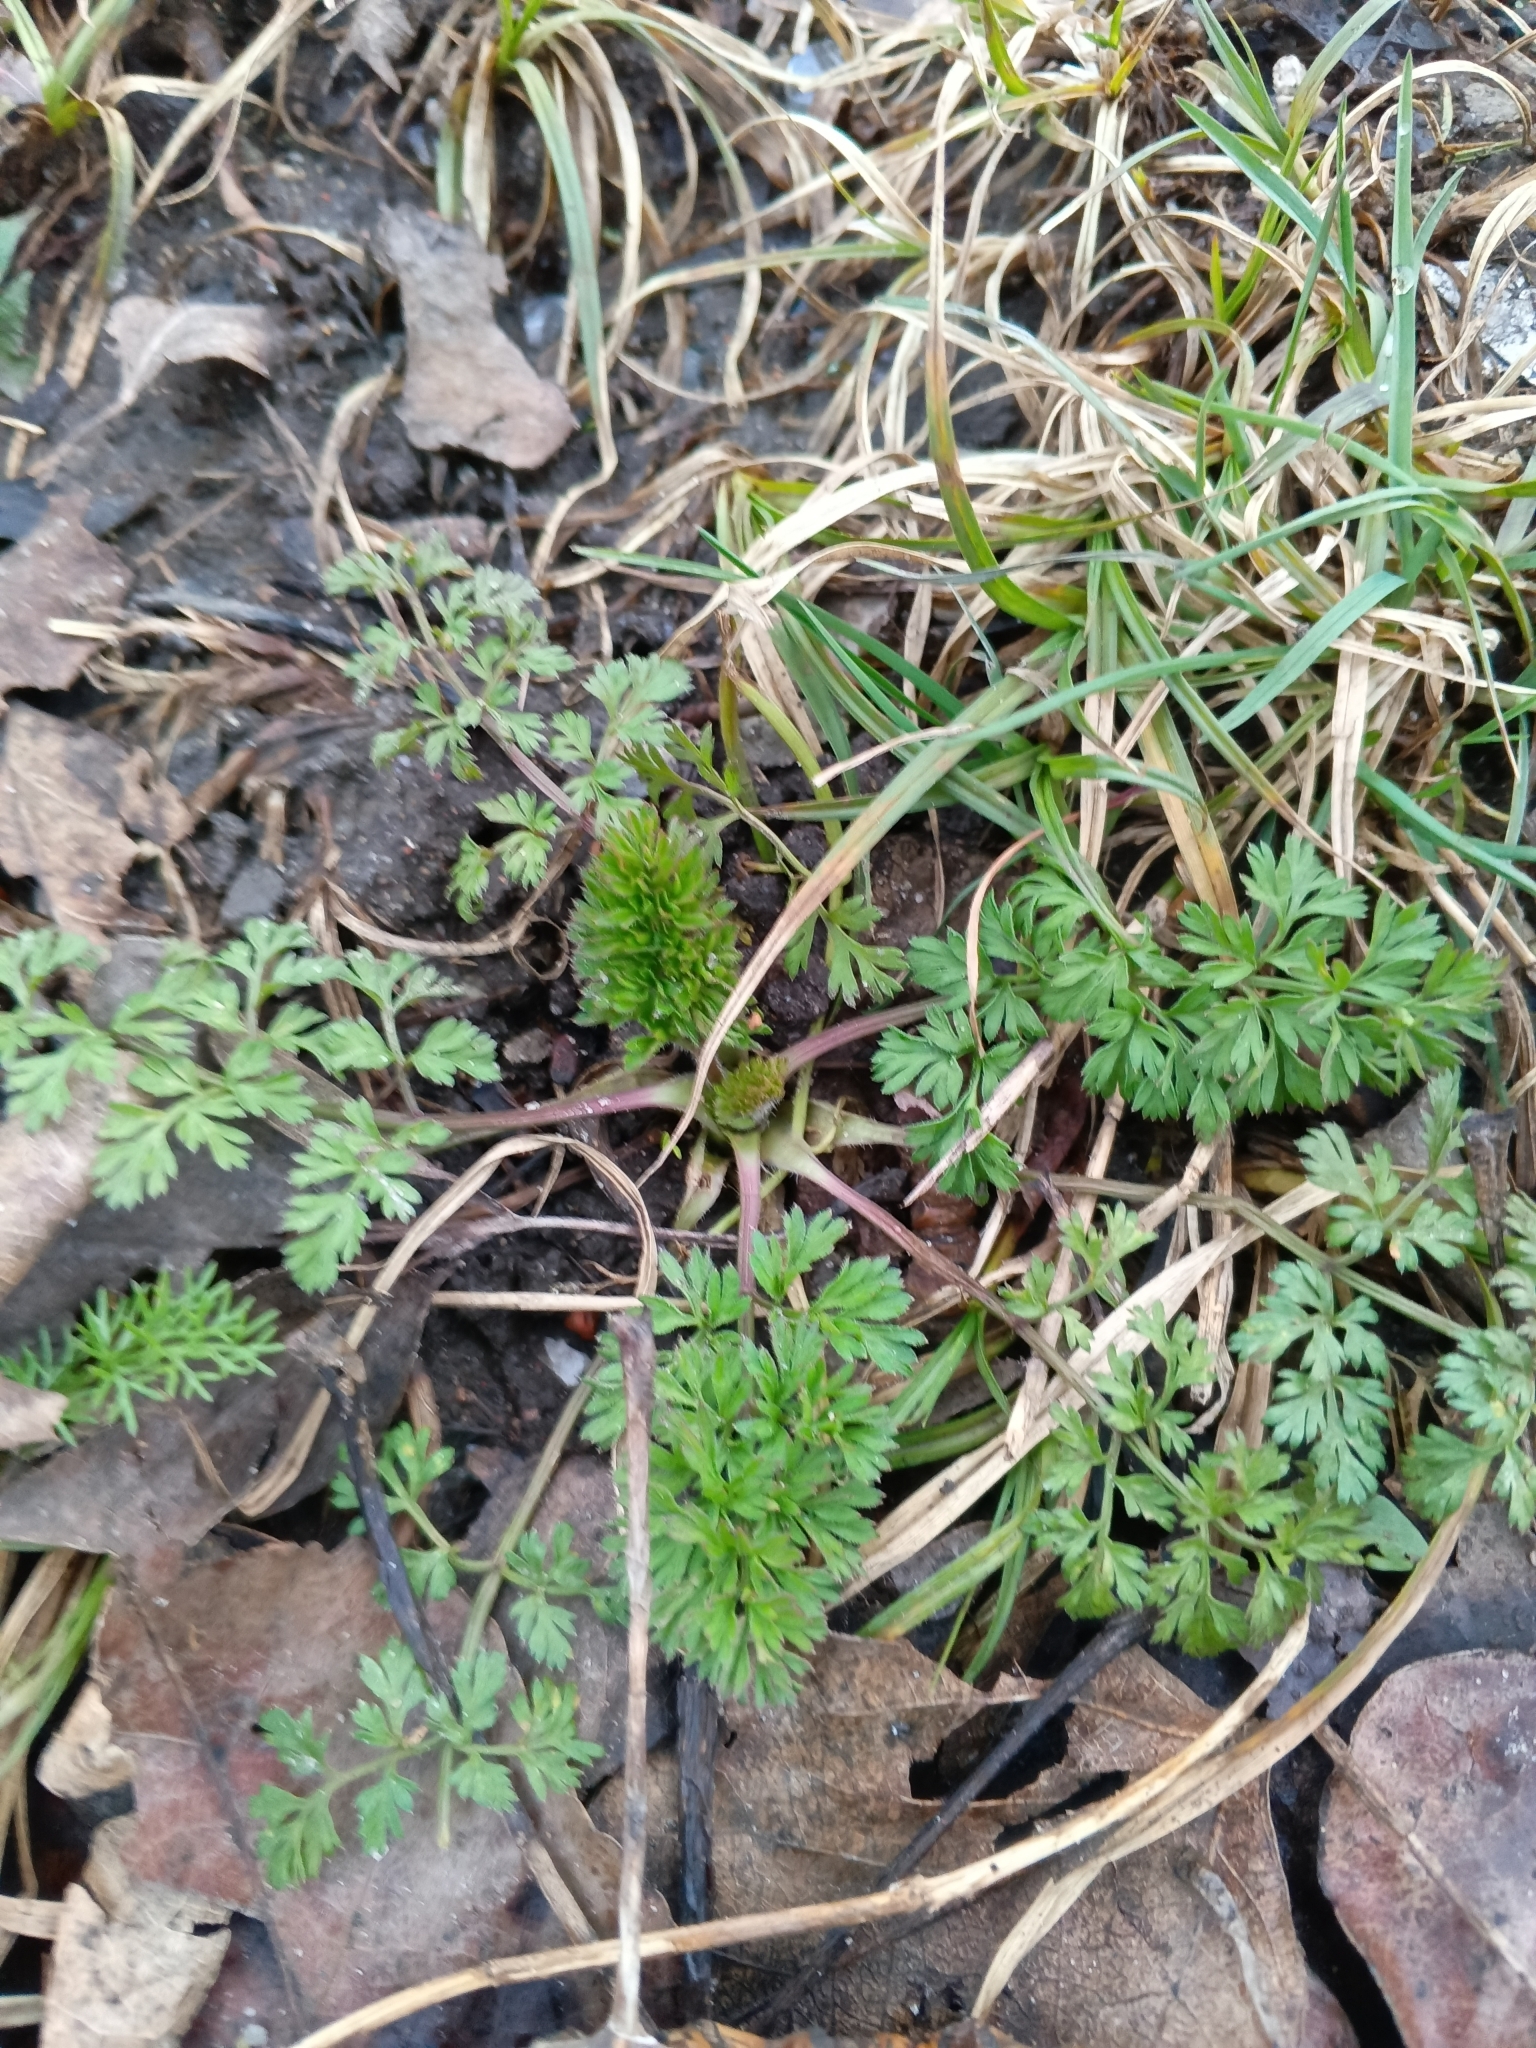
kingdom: Plantae
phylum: Tracheophyta
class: Magnoliopsida
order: Apiales
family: Apiaceae
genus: Daucus
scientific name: Daucus carota
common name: Wild carrot
